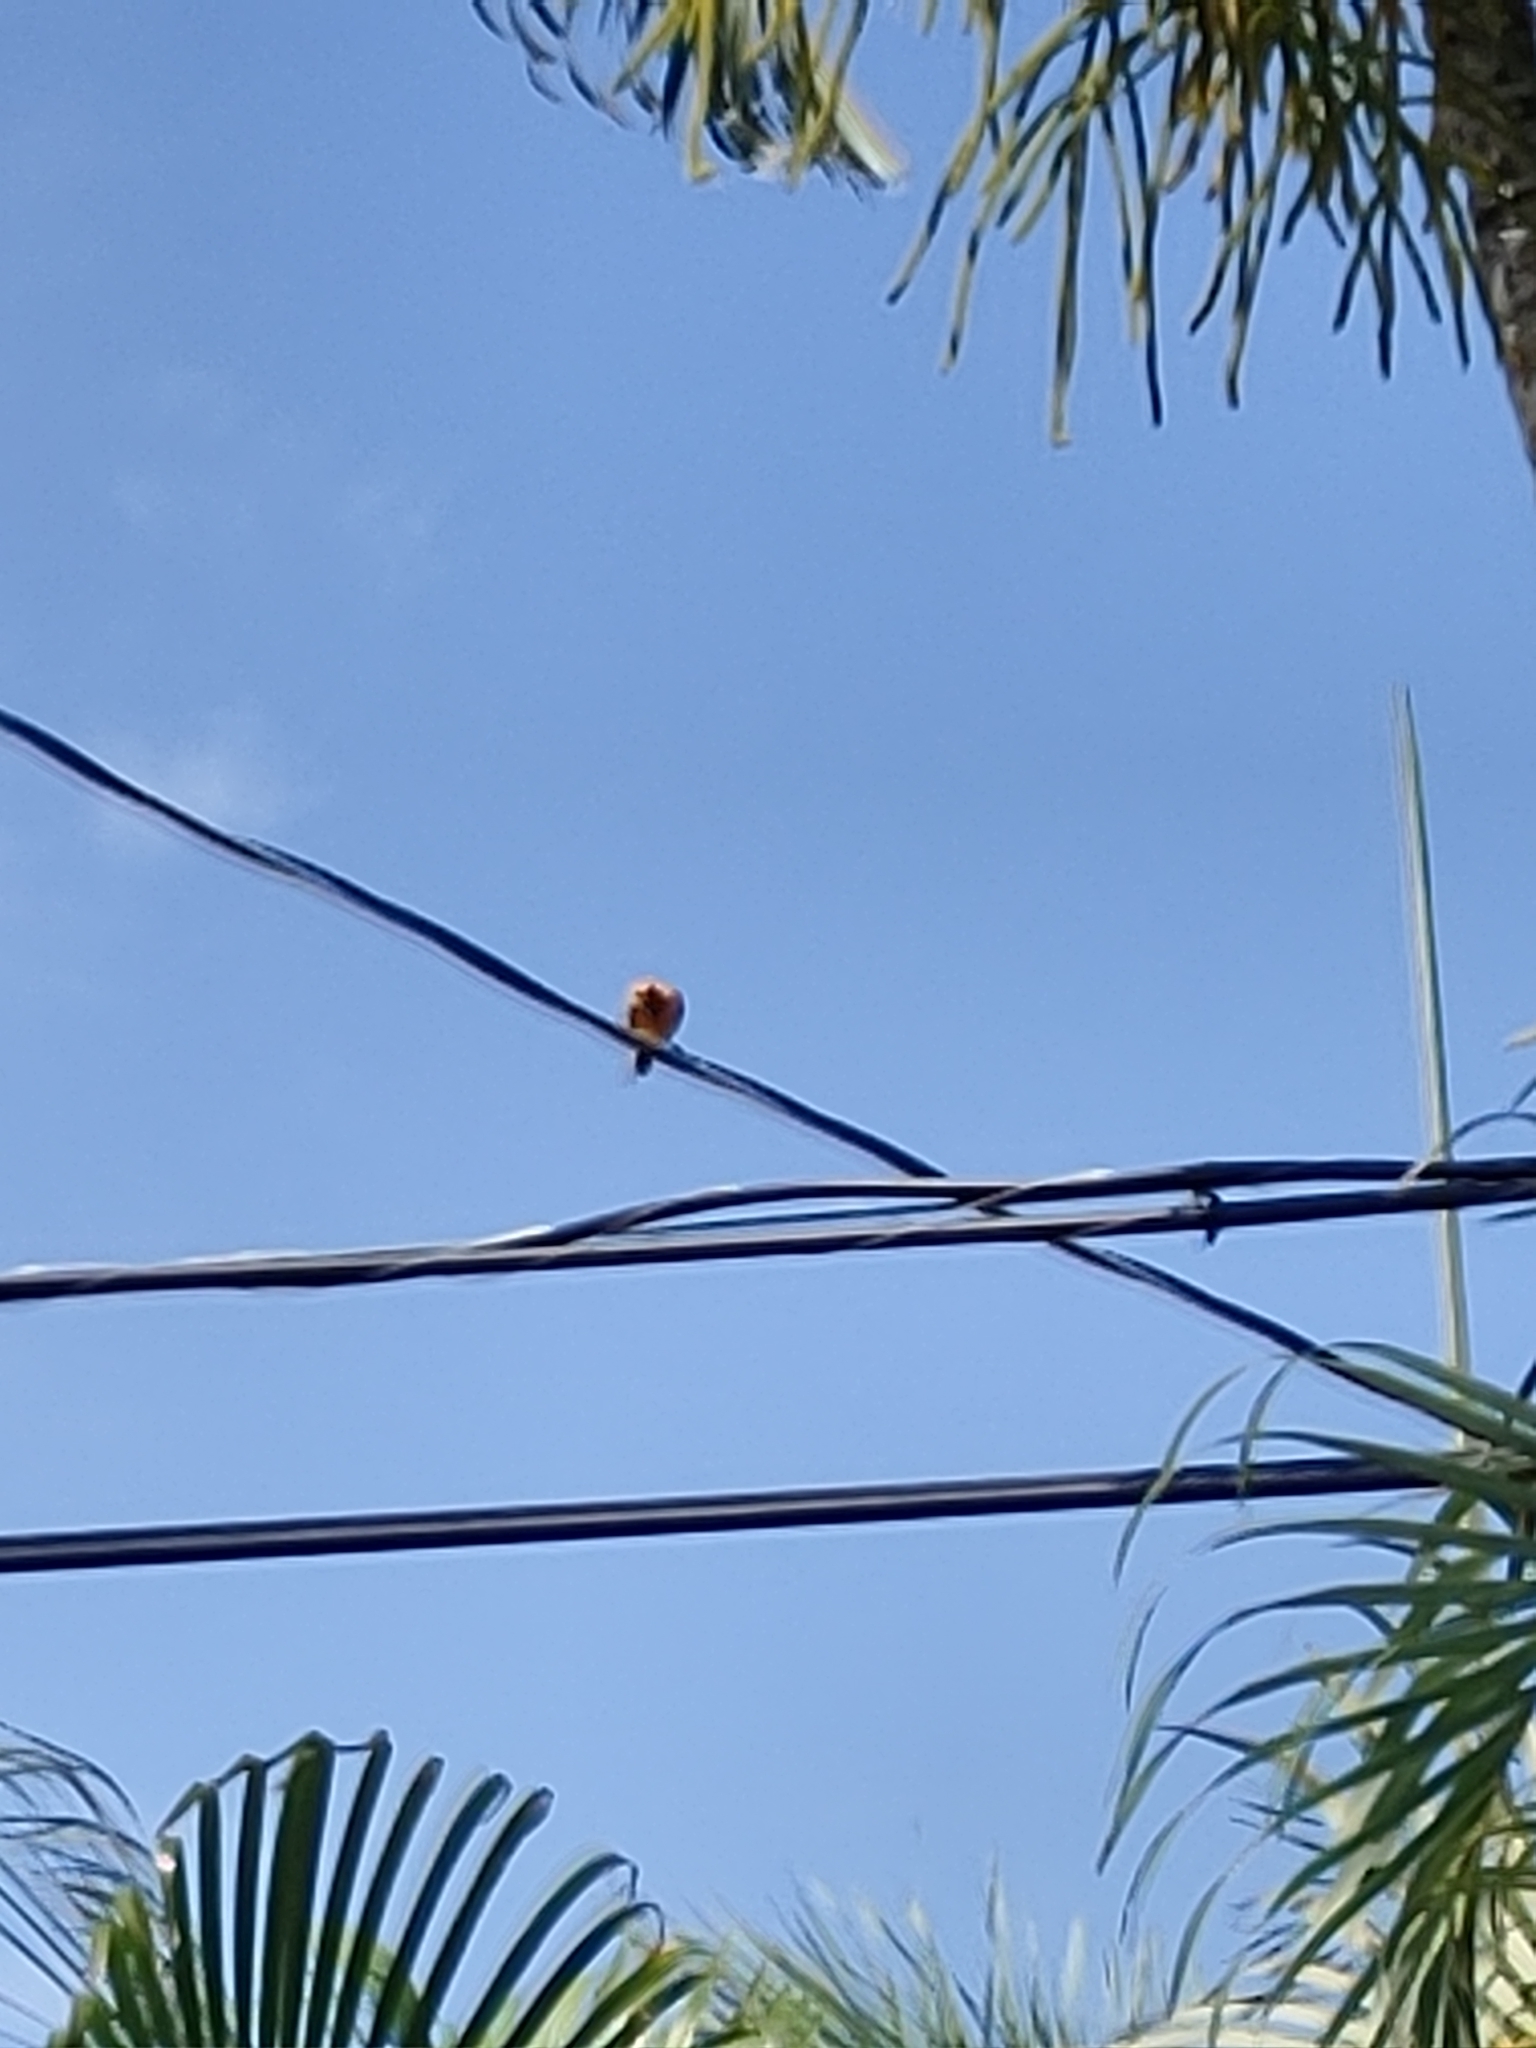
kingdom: Animalia
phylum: Chordata
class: Aves
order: Passeriformes
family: Icteridae
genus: Icterus
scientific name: Icterus pectoralis
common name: Spot-breasted oriole
